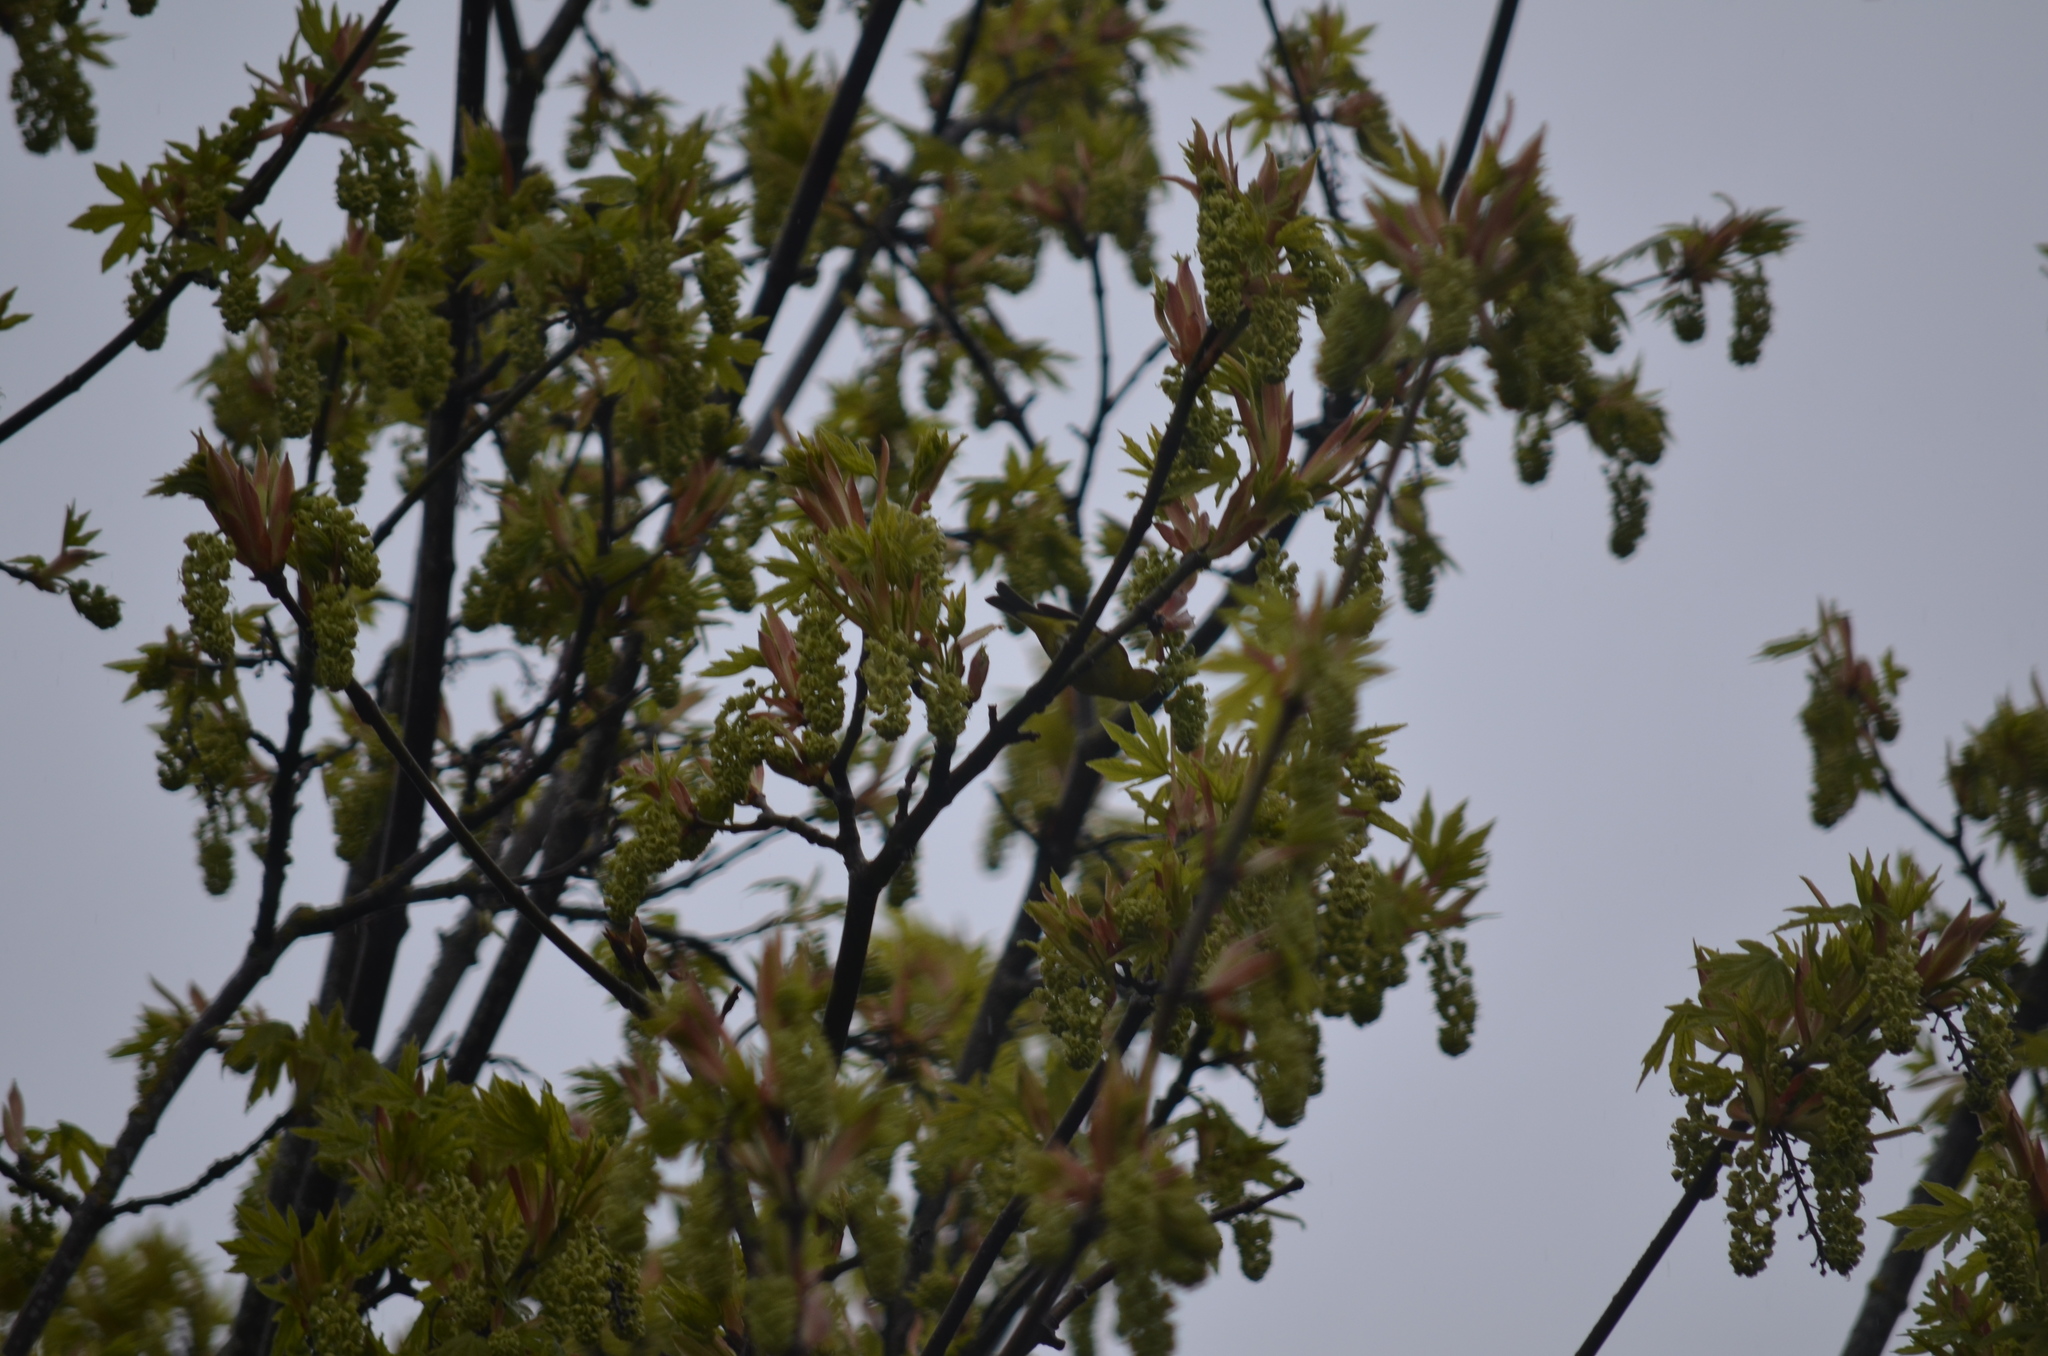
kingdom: Animalia
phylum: Chordata
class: Aves
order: Passeriformes
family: Parulidae
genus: Leiothlypis
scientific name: Leiothlypis celata
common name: Orange-crowned warbler
